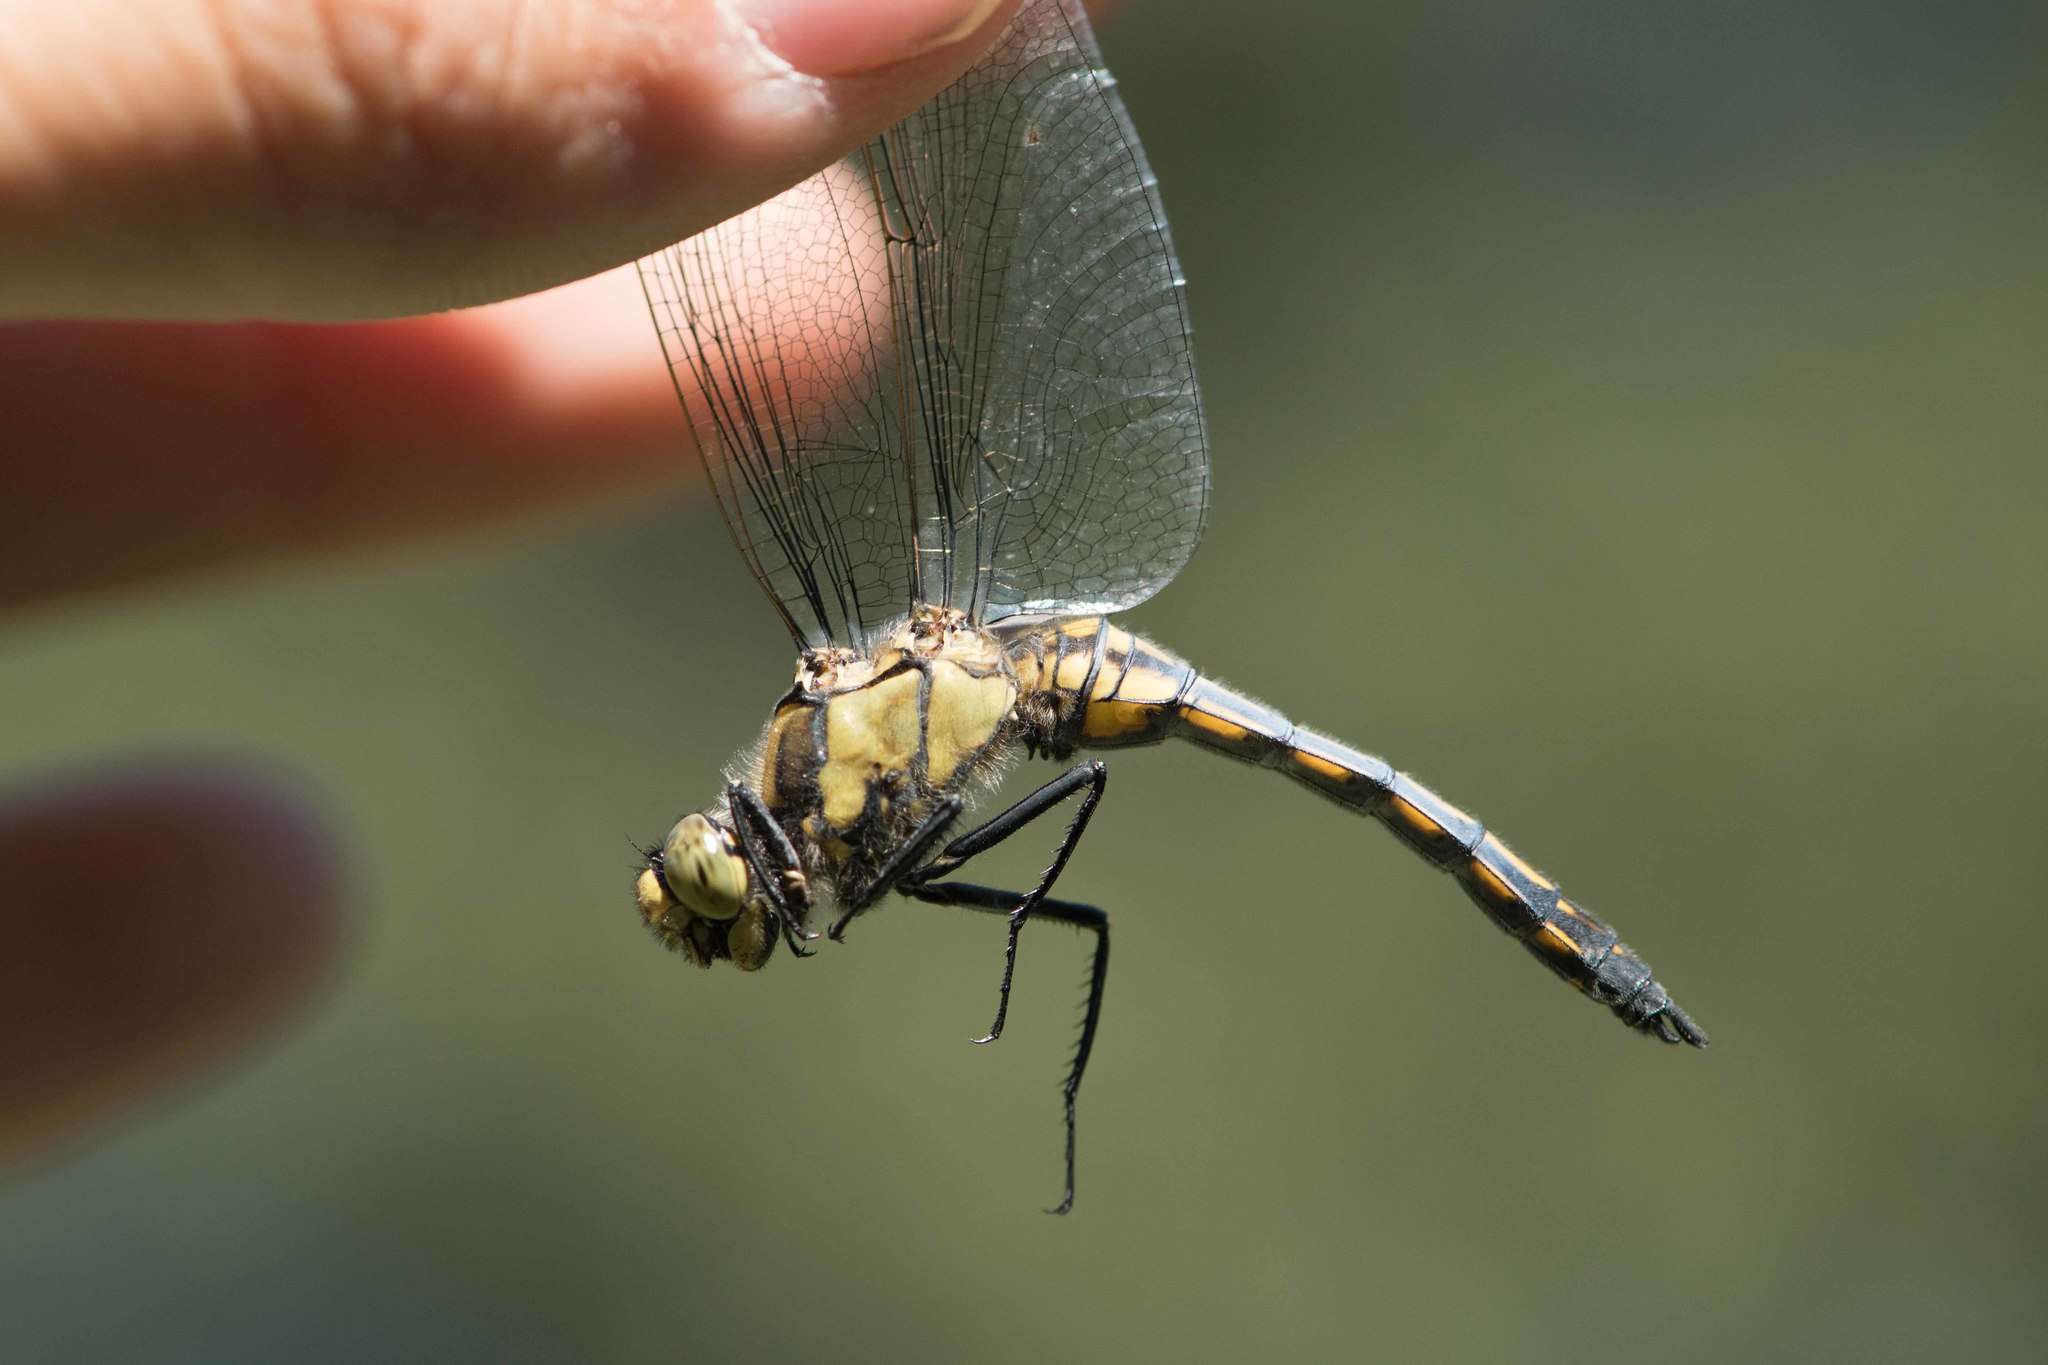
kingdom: Animalia
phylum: Arthropoda
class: Insecta
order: Odonata
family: Libellulidae
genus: Orthetrum
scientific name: Orthetrum cancellatum
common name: Black-tailed skimmer
